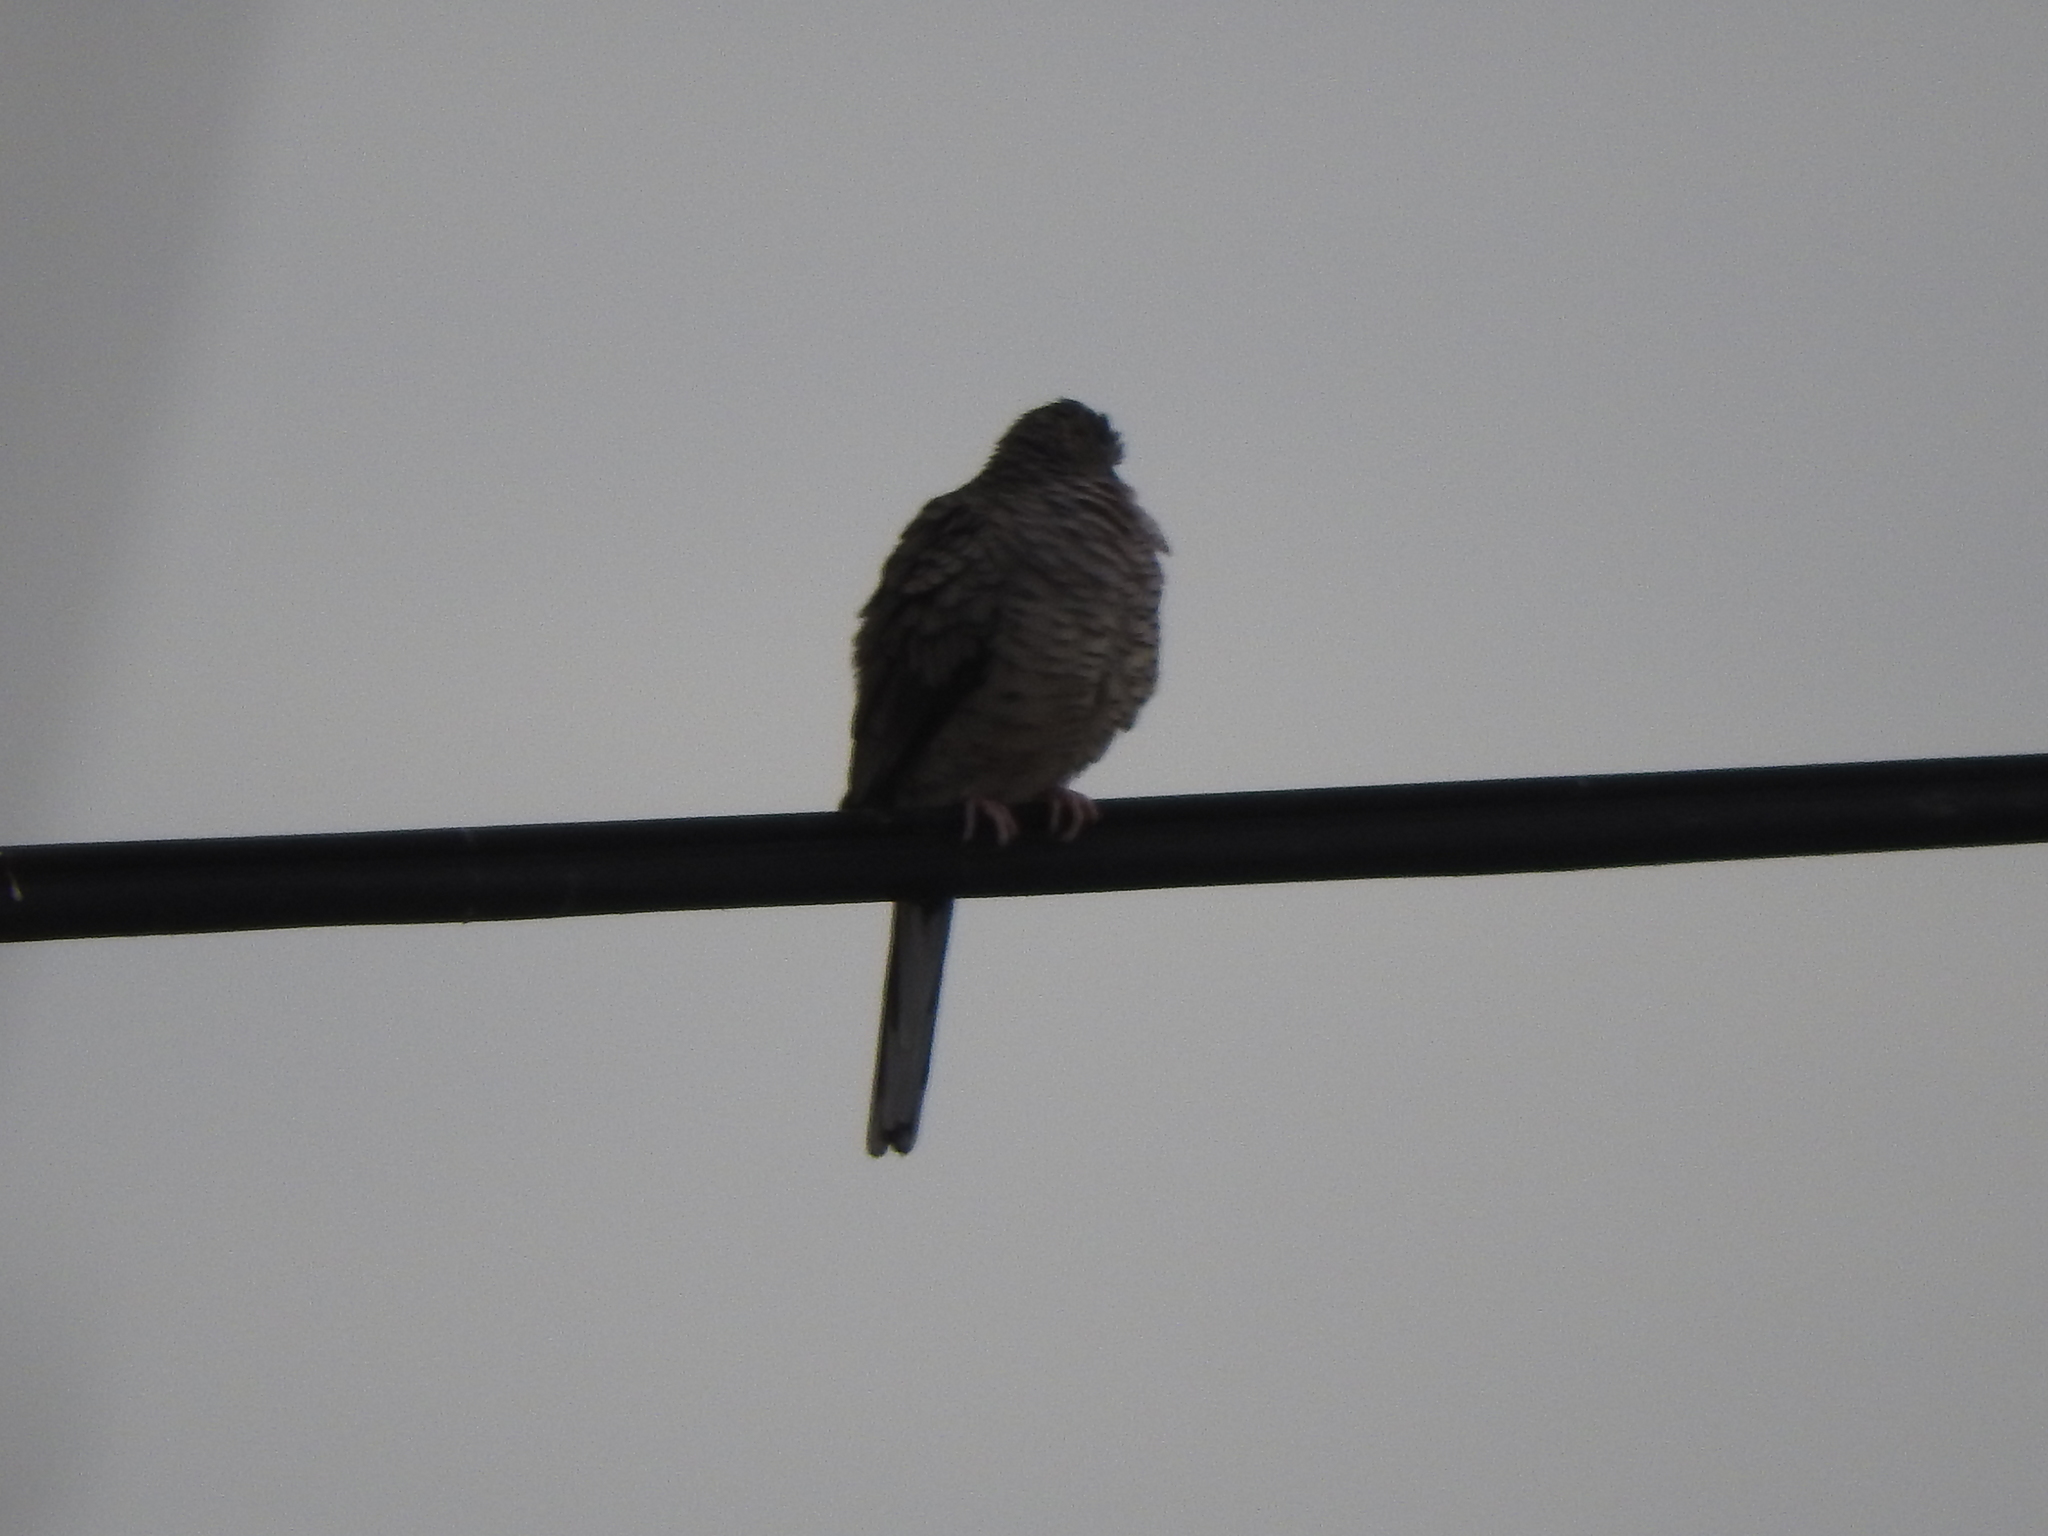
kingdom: Animalia
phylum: Chordata
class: Aves
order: Columbiformes
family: Columbidae
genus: Columbina
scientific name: Columbina inca
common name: Inca dove
